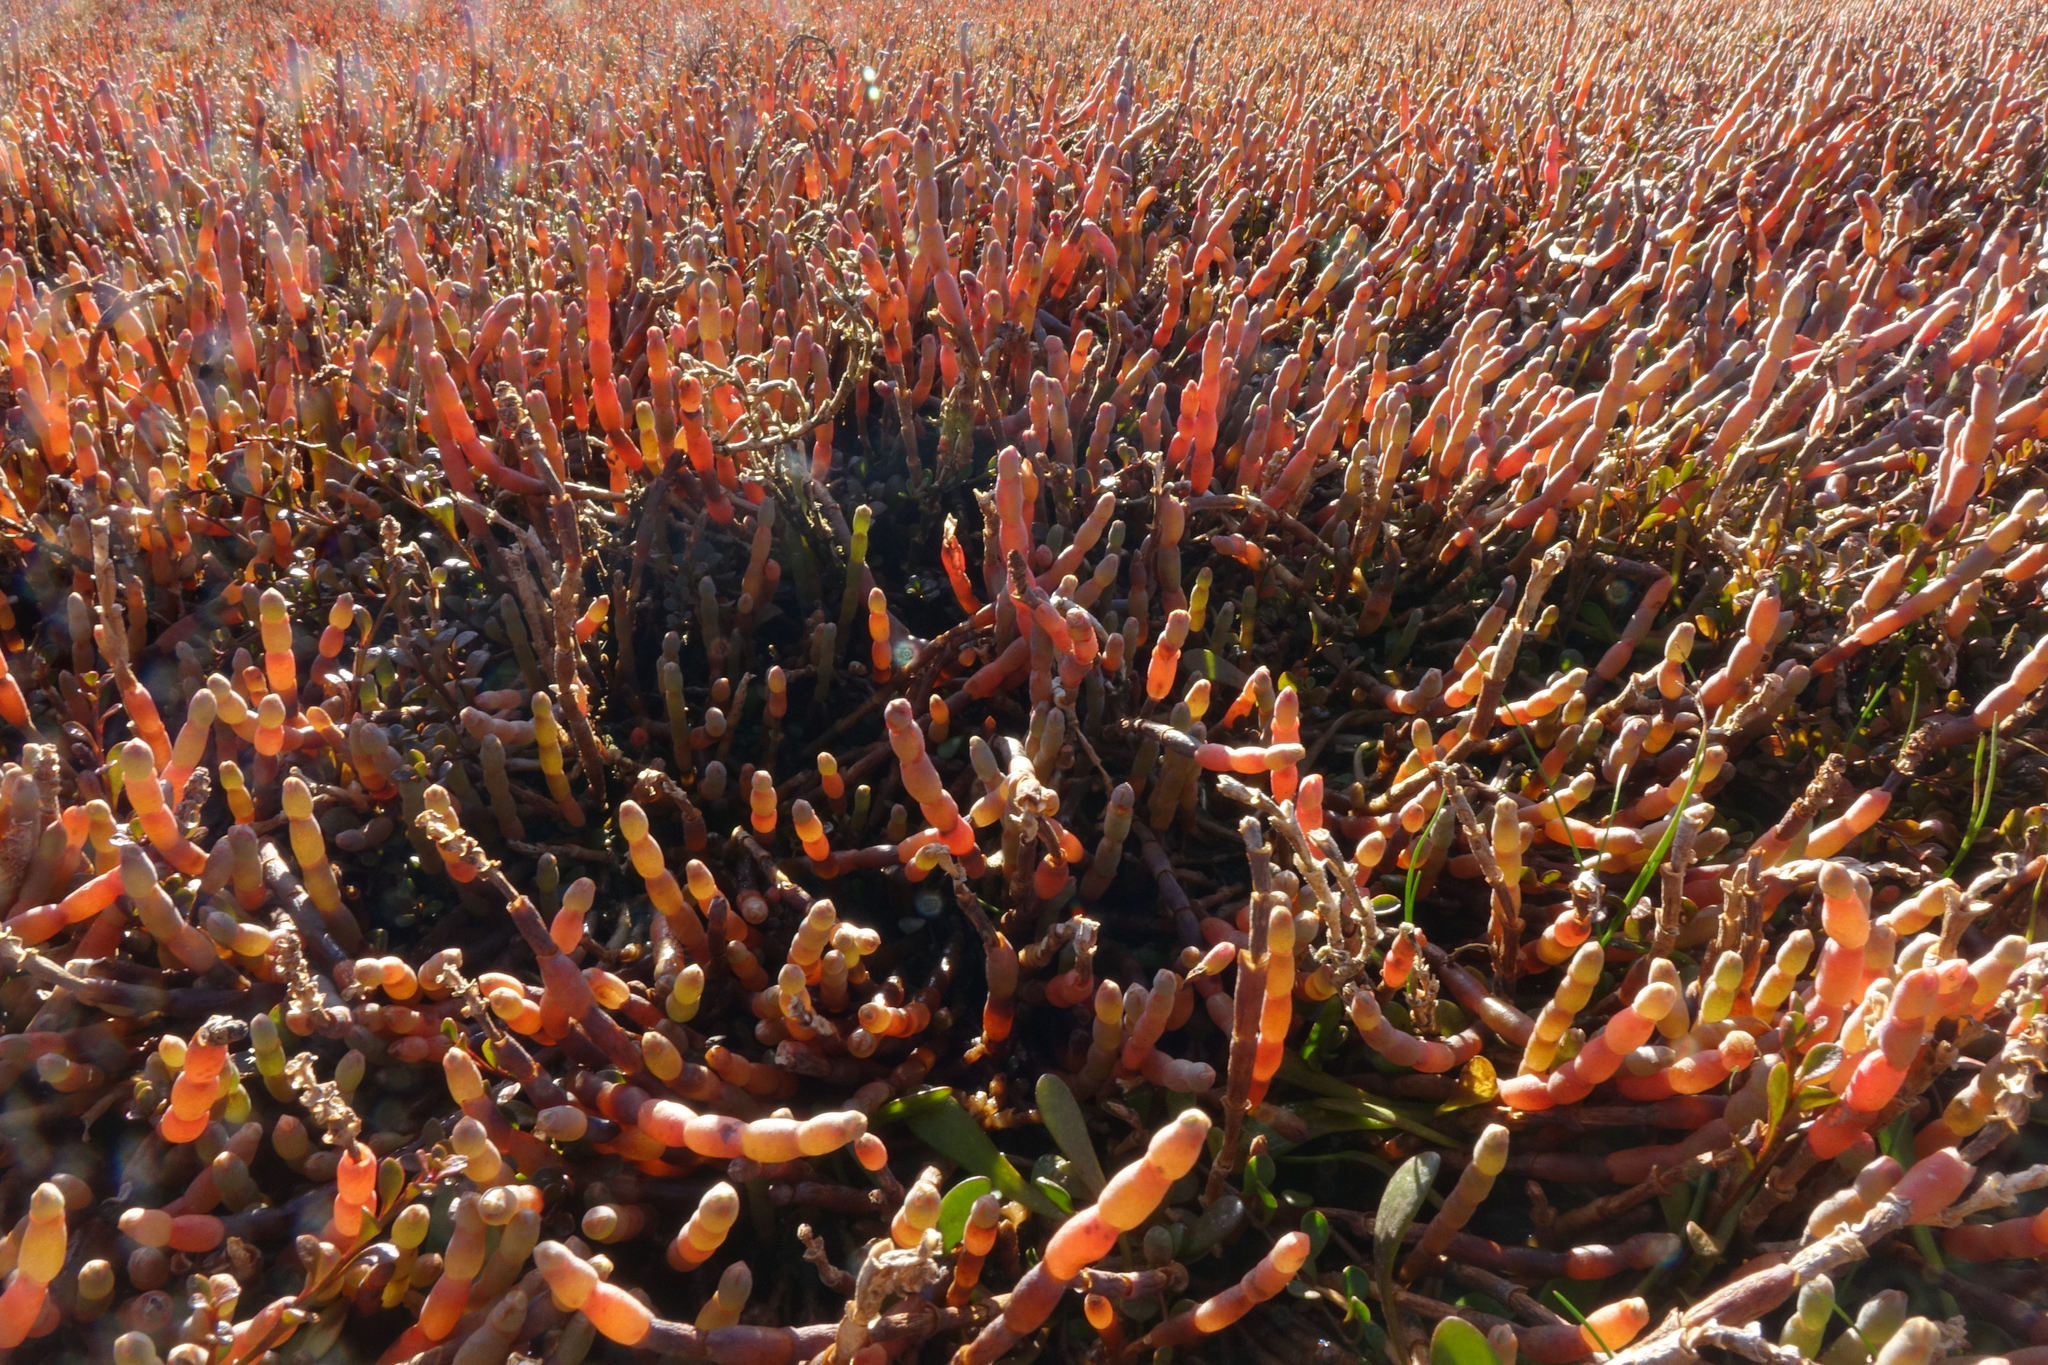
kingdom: Plantae
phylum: Tracheophyta
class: Magnoliopsida
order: Caryophyllales
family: Amaranthaceae
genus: Salicornia
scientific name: Salicornia quinqueflora
